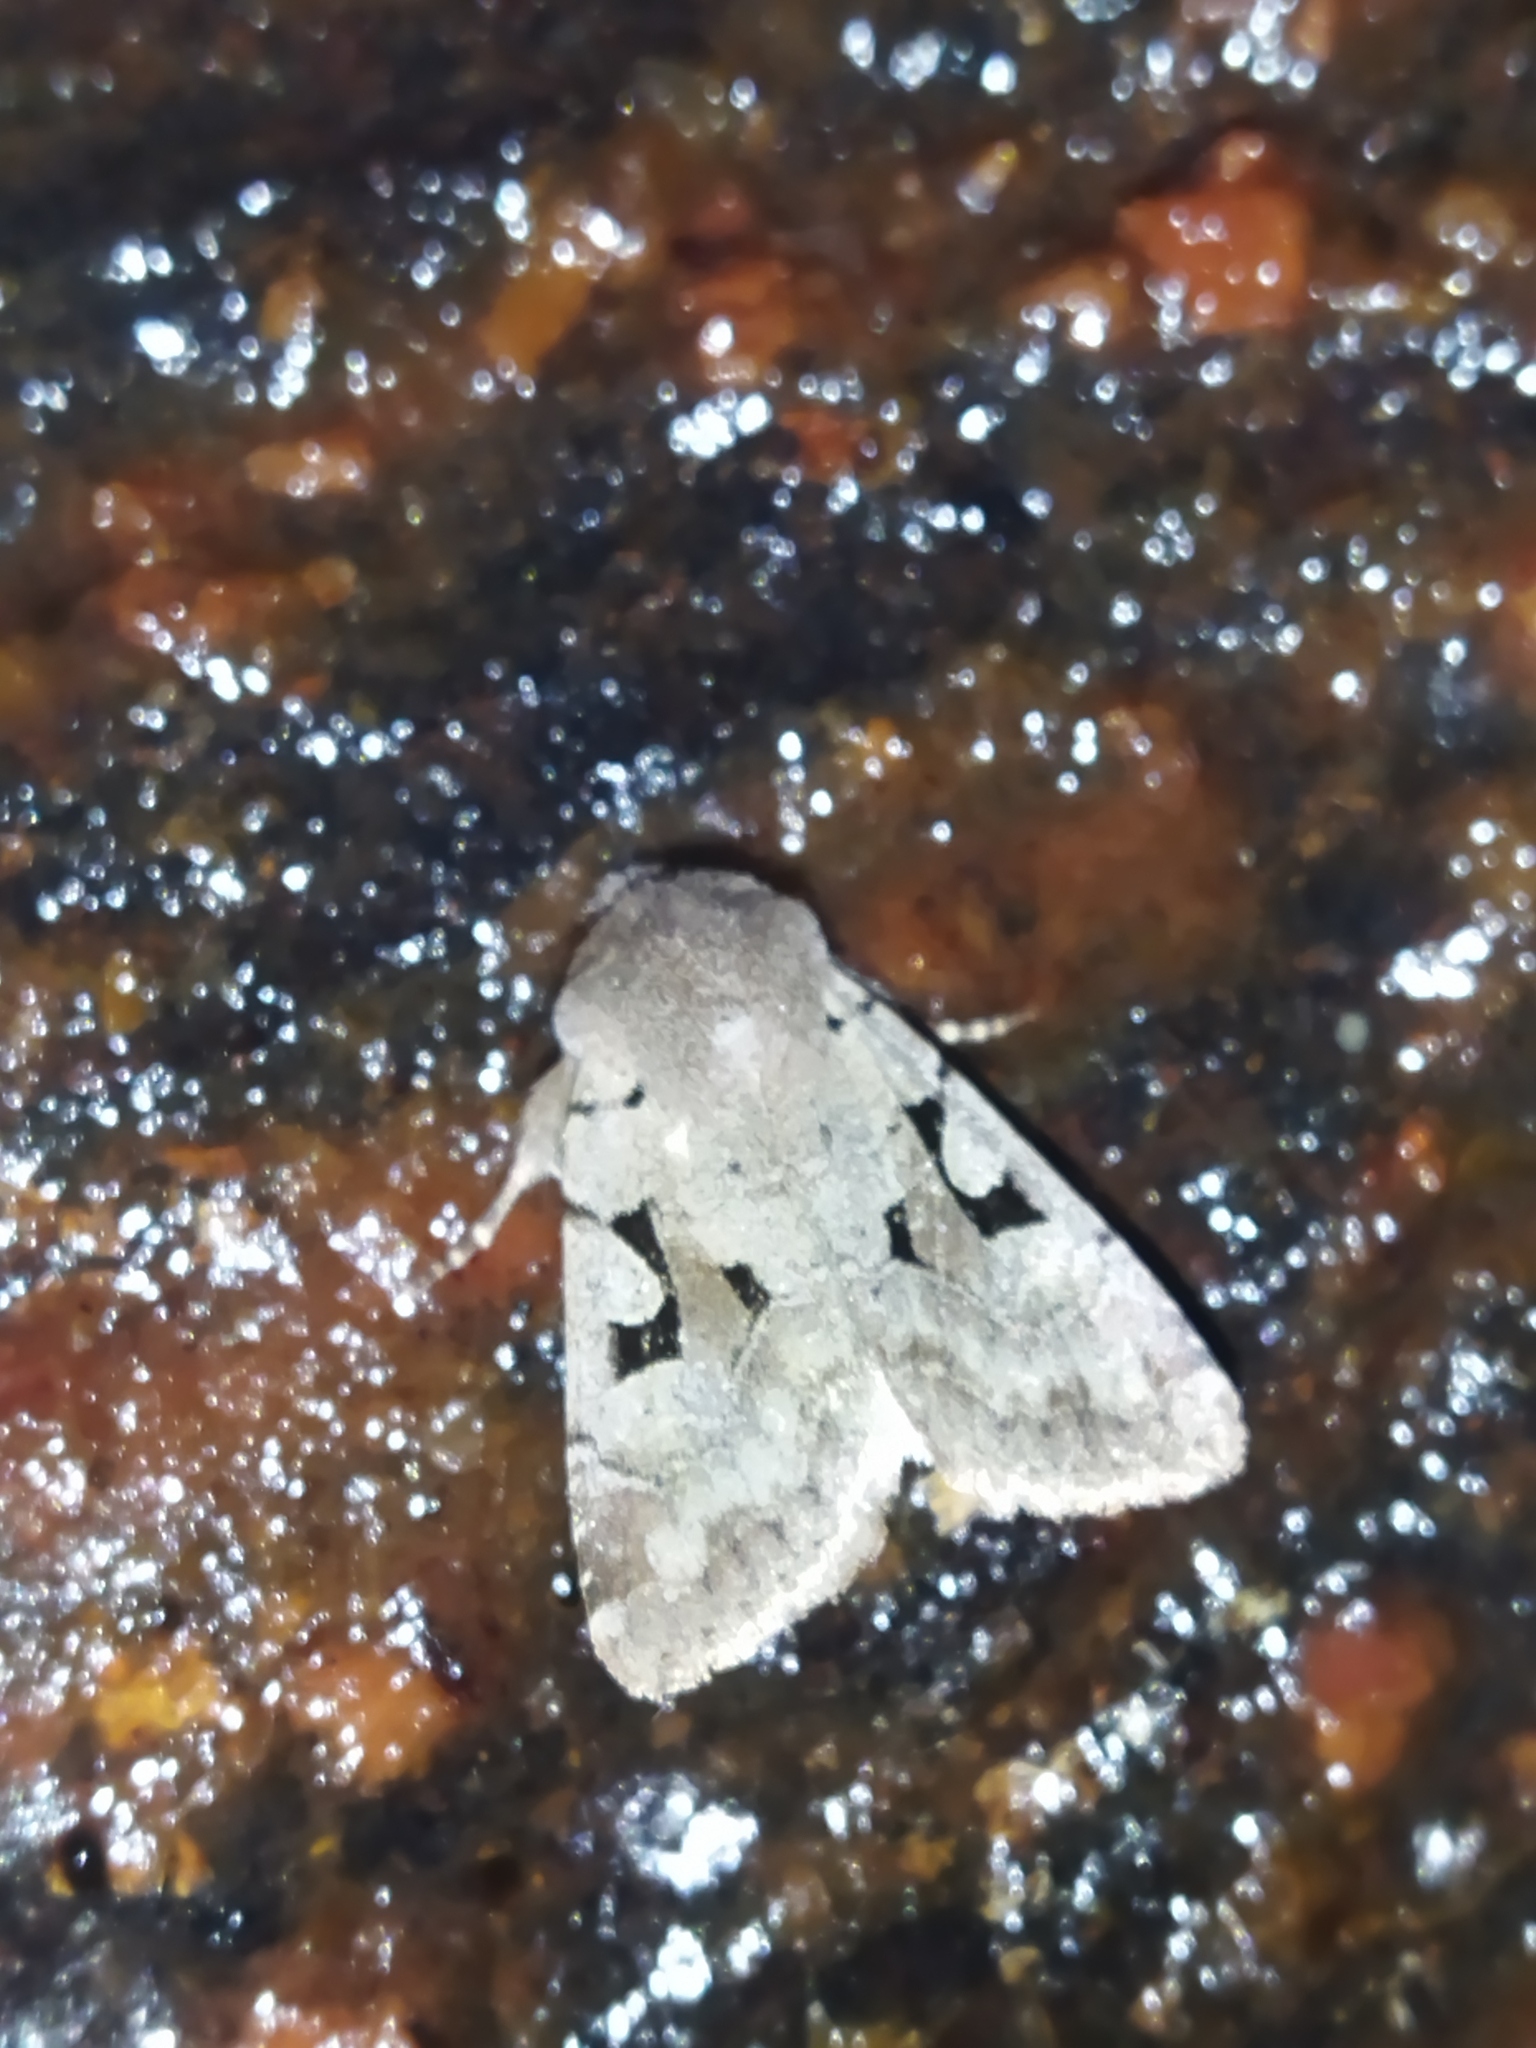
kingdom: Animalia
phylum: Arthropoda
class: Insecta
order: Lepidoptera
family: Noctuidae
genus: Orthosia
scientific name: Orthosia gothica
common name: Hebrew character
